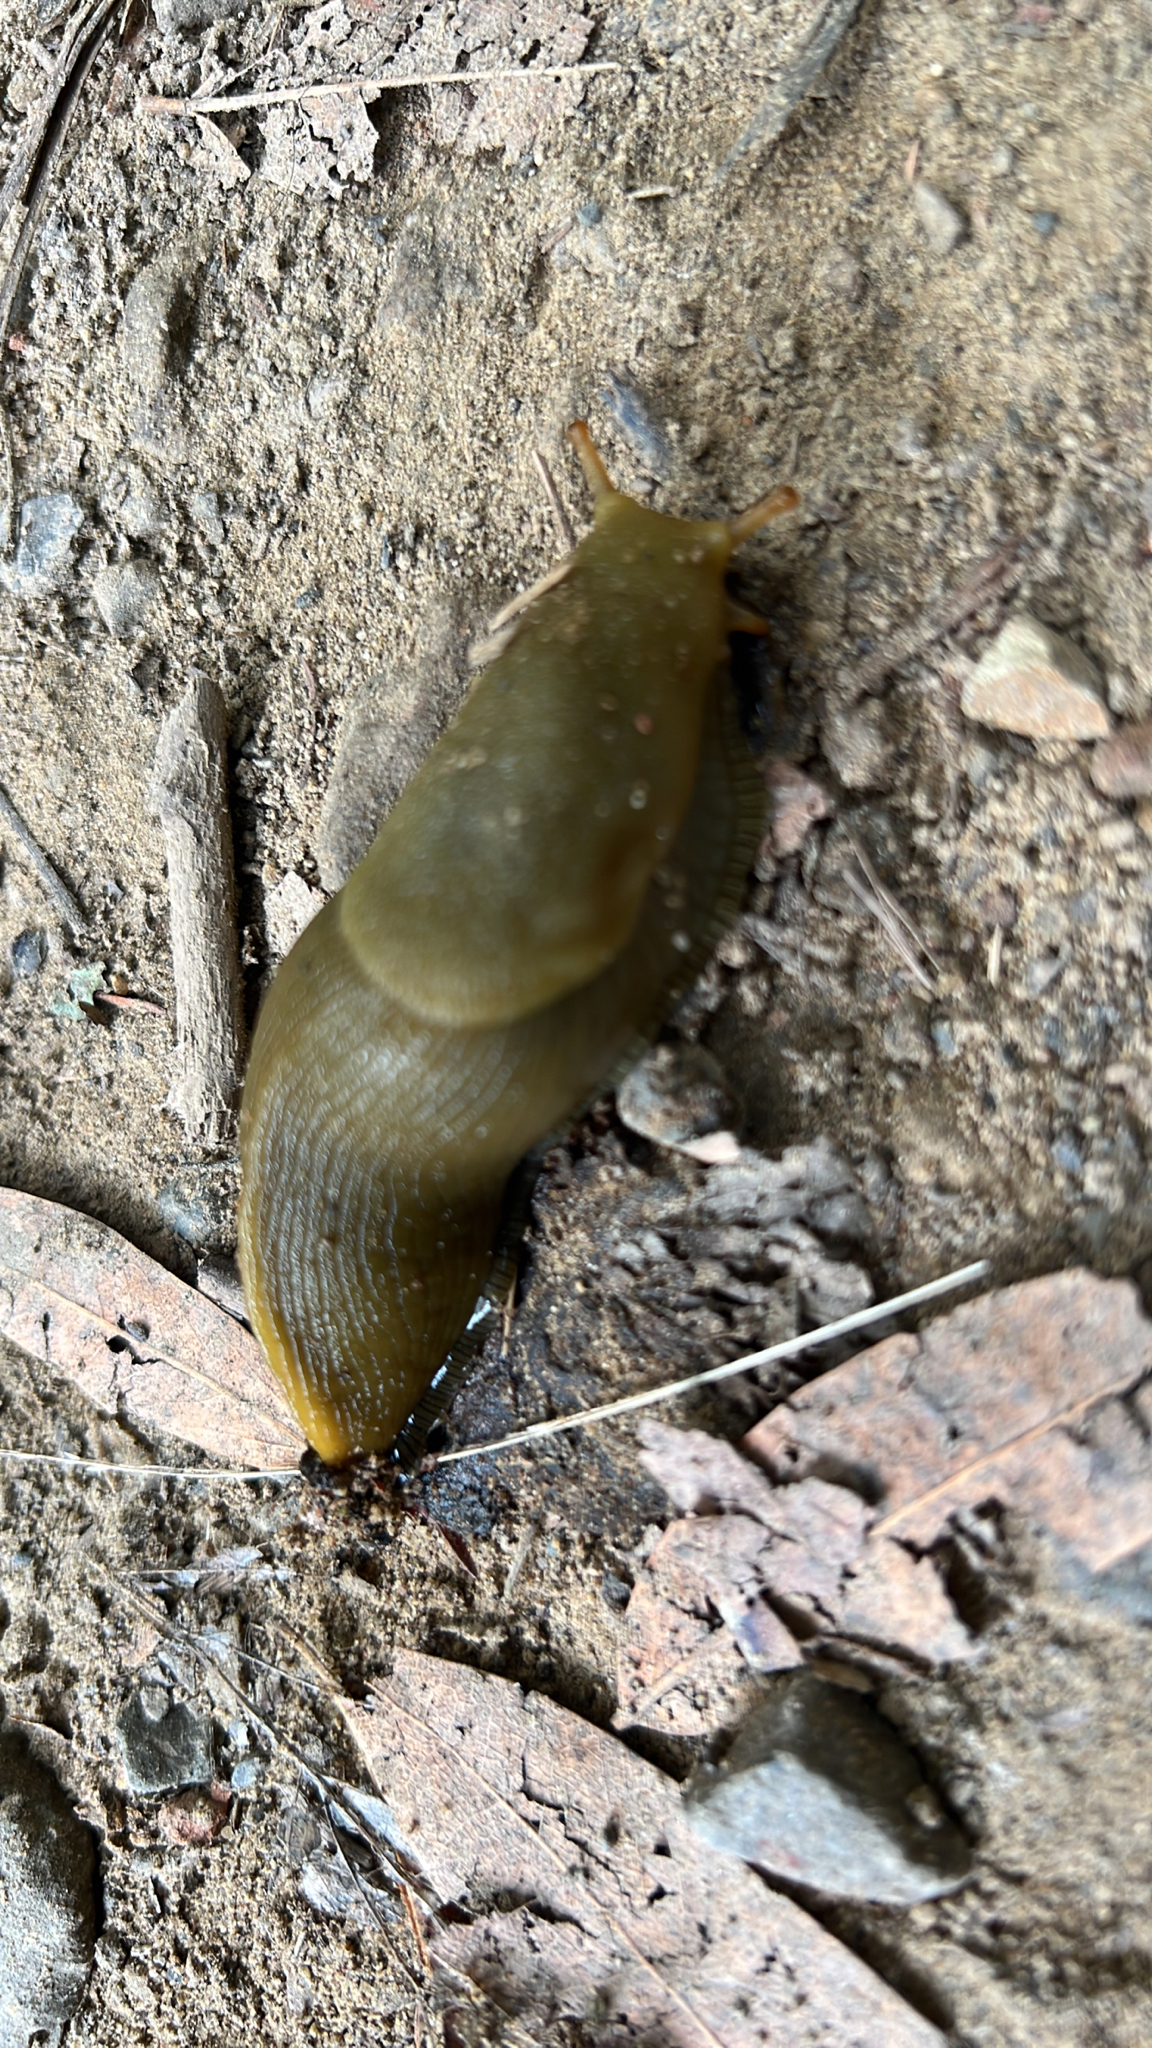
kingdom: Animalia
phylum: Mollusca
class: Gastropoda
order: Stylommatophora
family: Ariolimacidae
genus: Ariolimax
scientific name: Ariolimax buttoni
